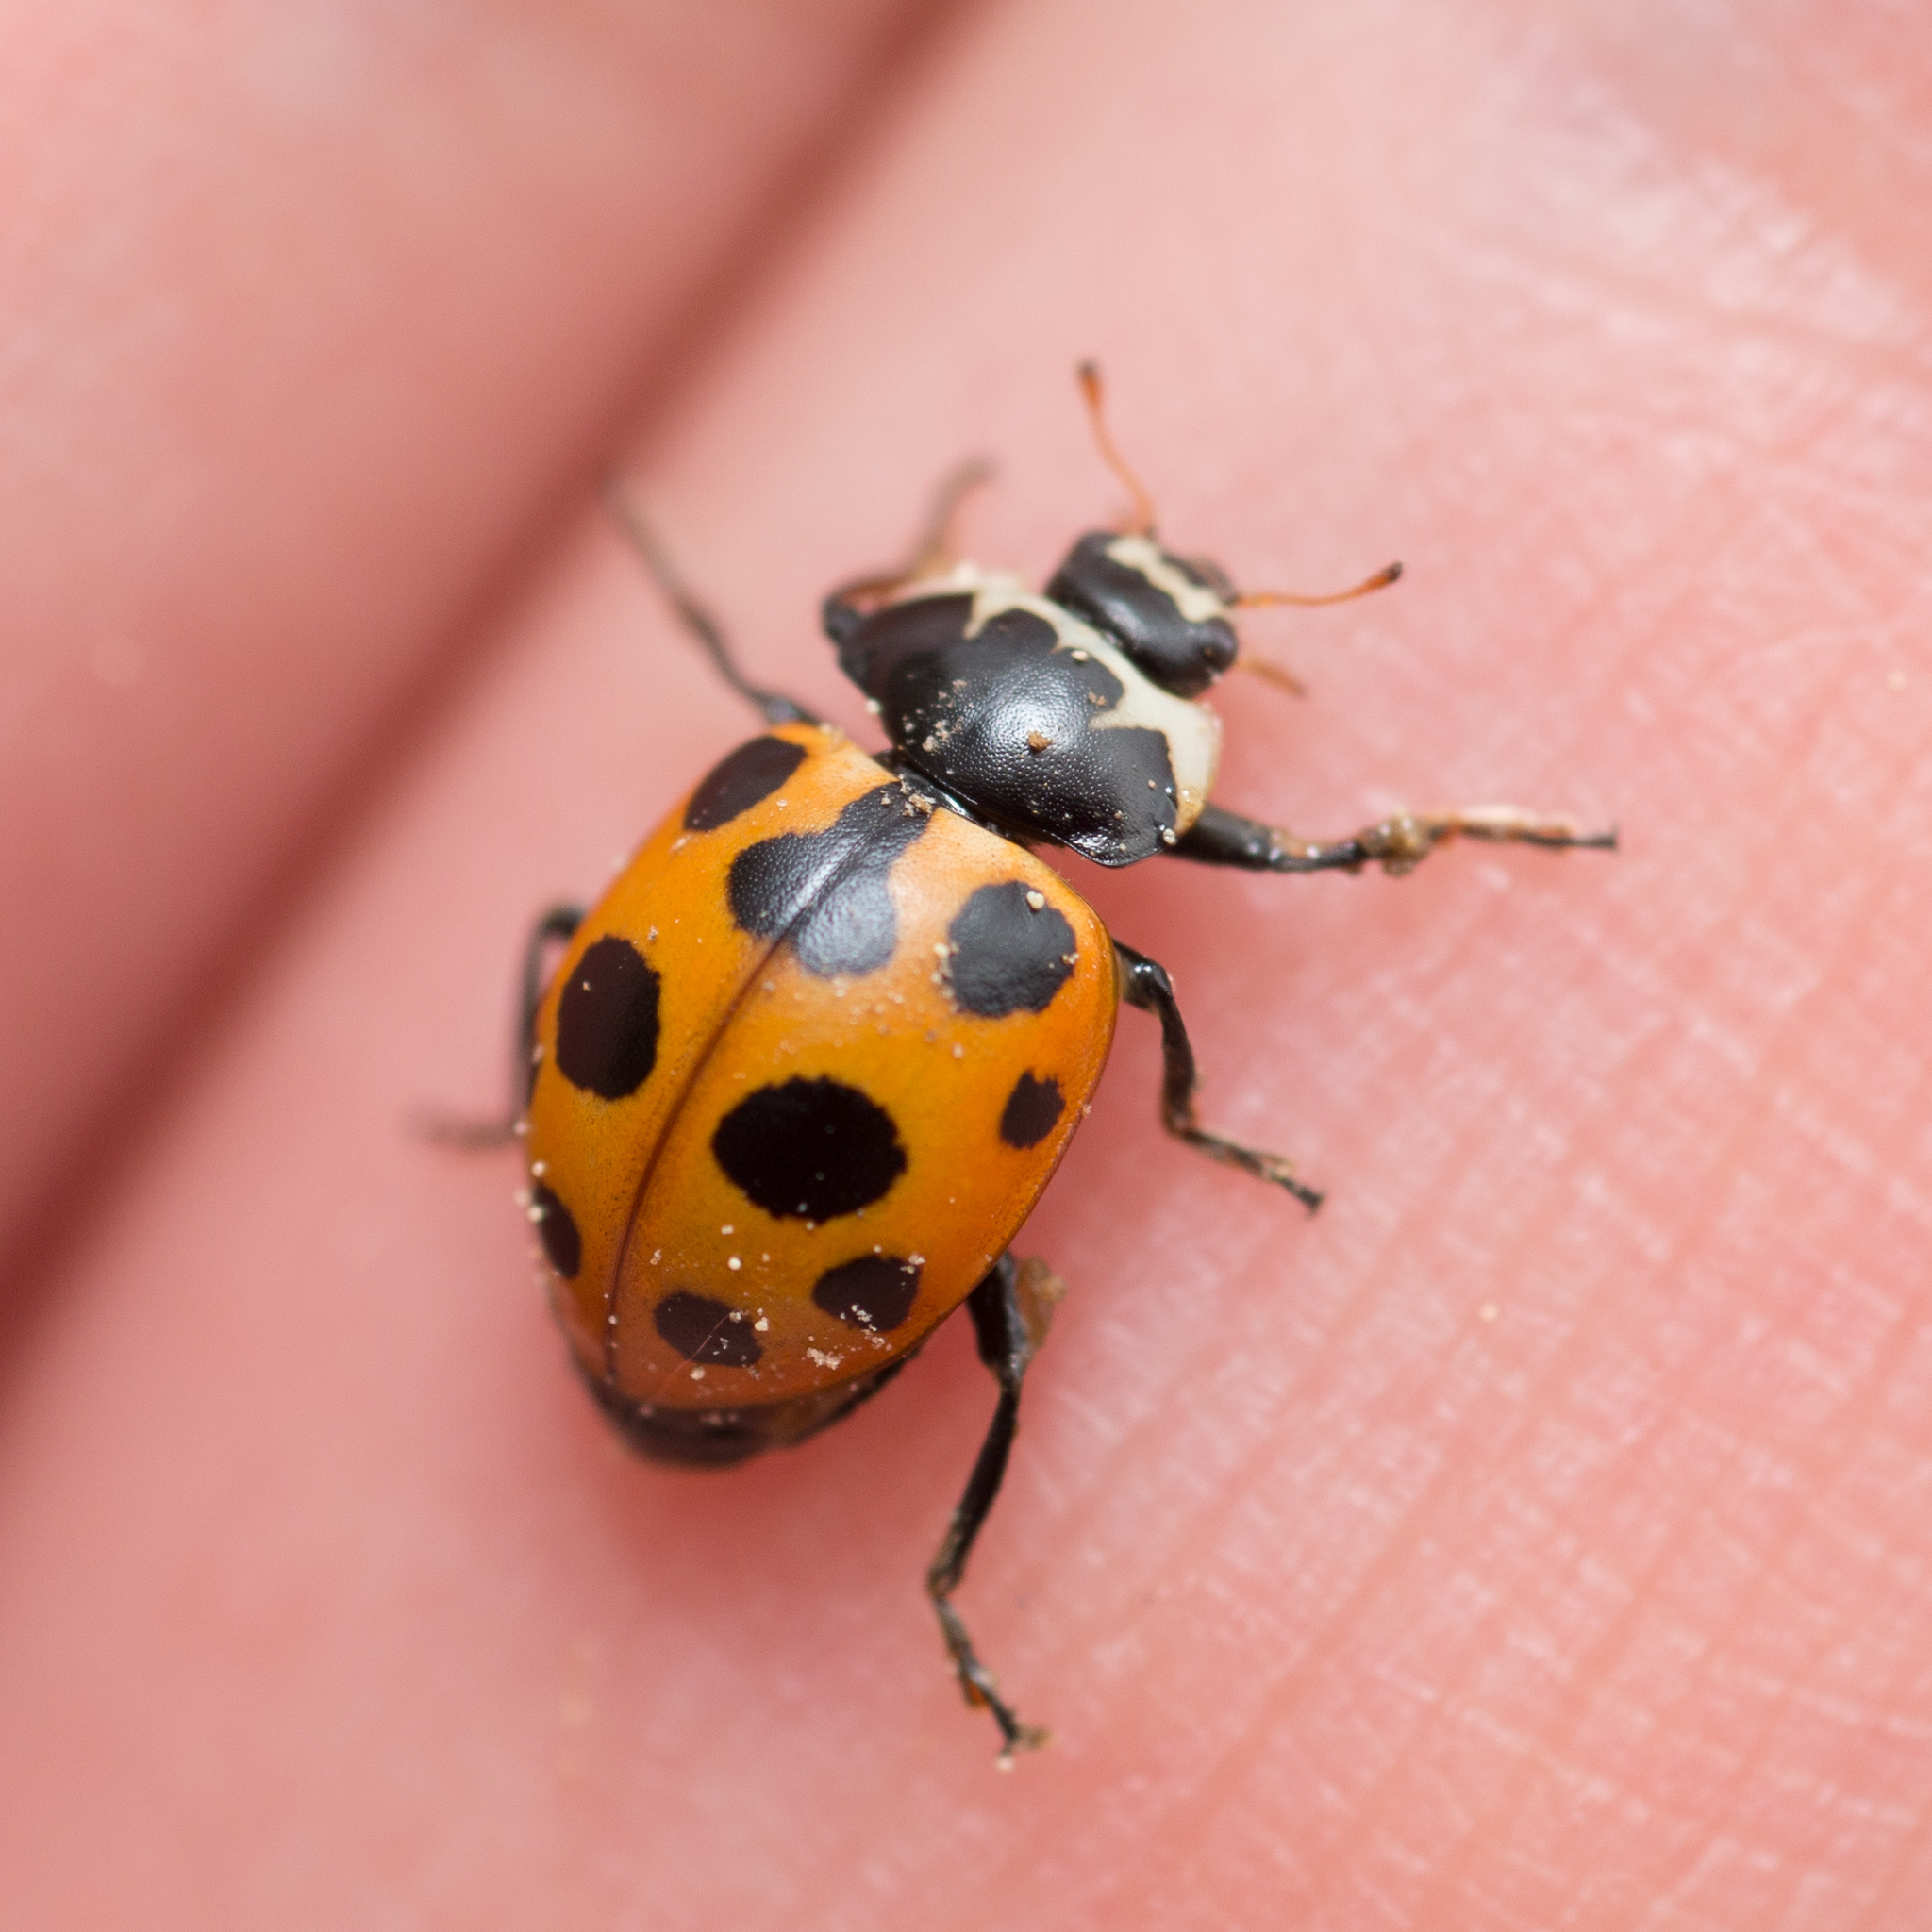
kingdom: Animalia
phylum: Arthropoda
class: Insecta
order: Coleoptera
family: Coccinellidae
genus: Ceratomegilla
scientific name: Ceratomegilla notata
